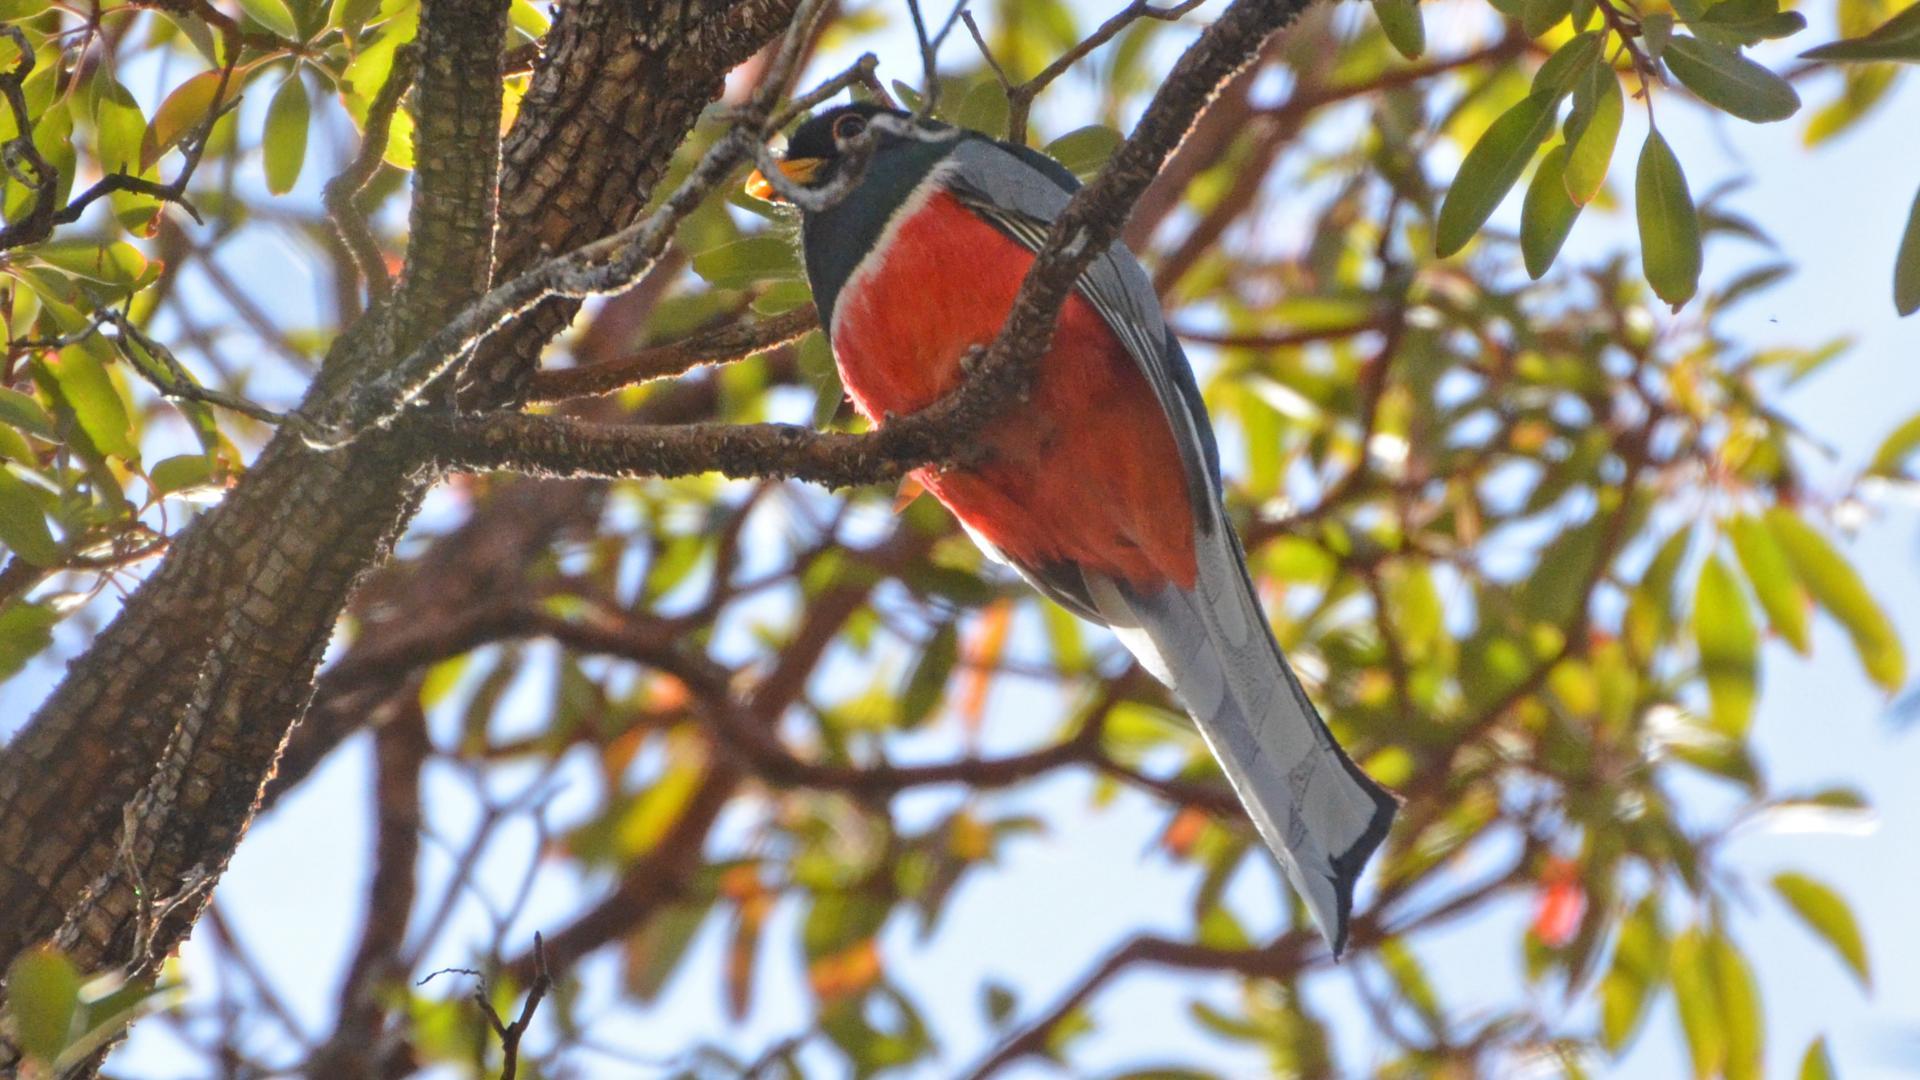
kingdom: Animalia
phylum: Chordata
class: Aves
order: Trogoniformes
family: Trogonidae
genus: Trogon
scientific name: Trogon elegans
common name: Elegant trogon
